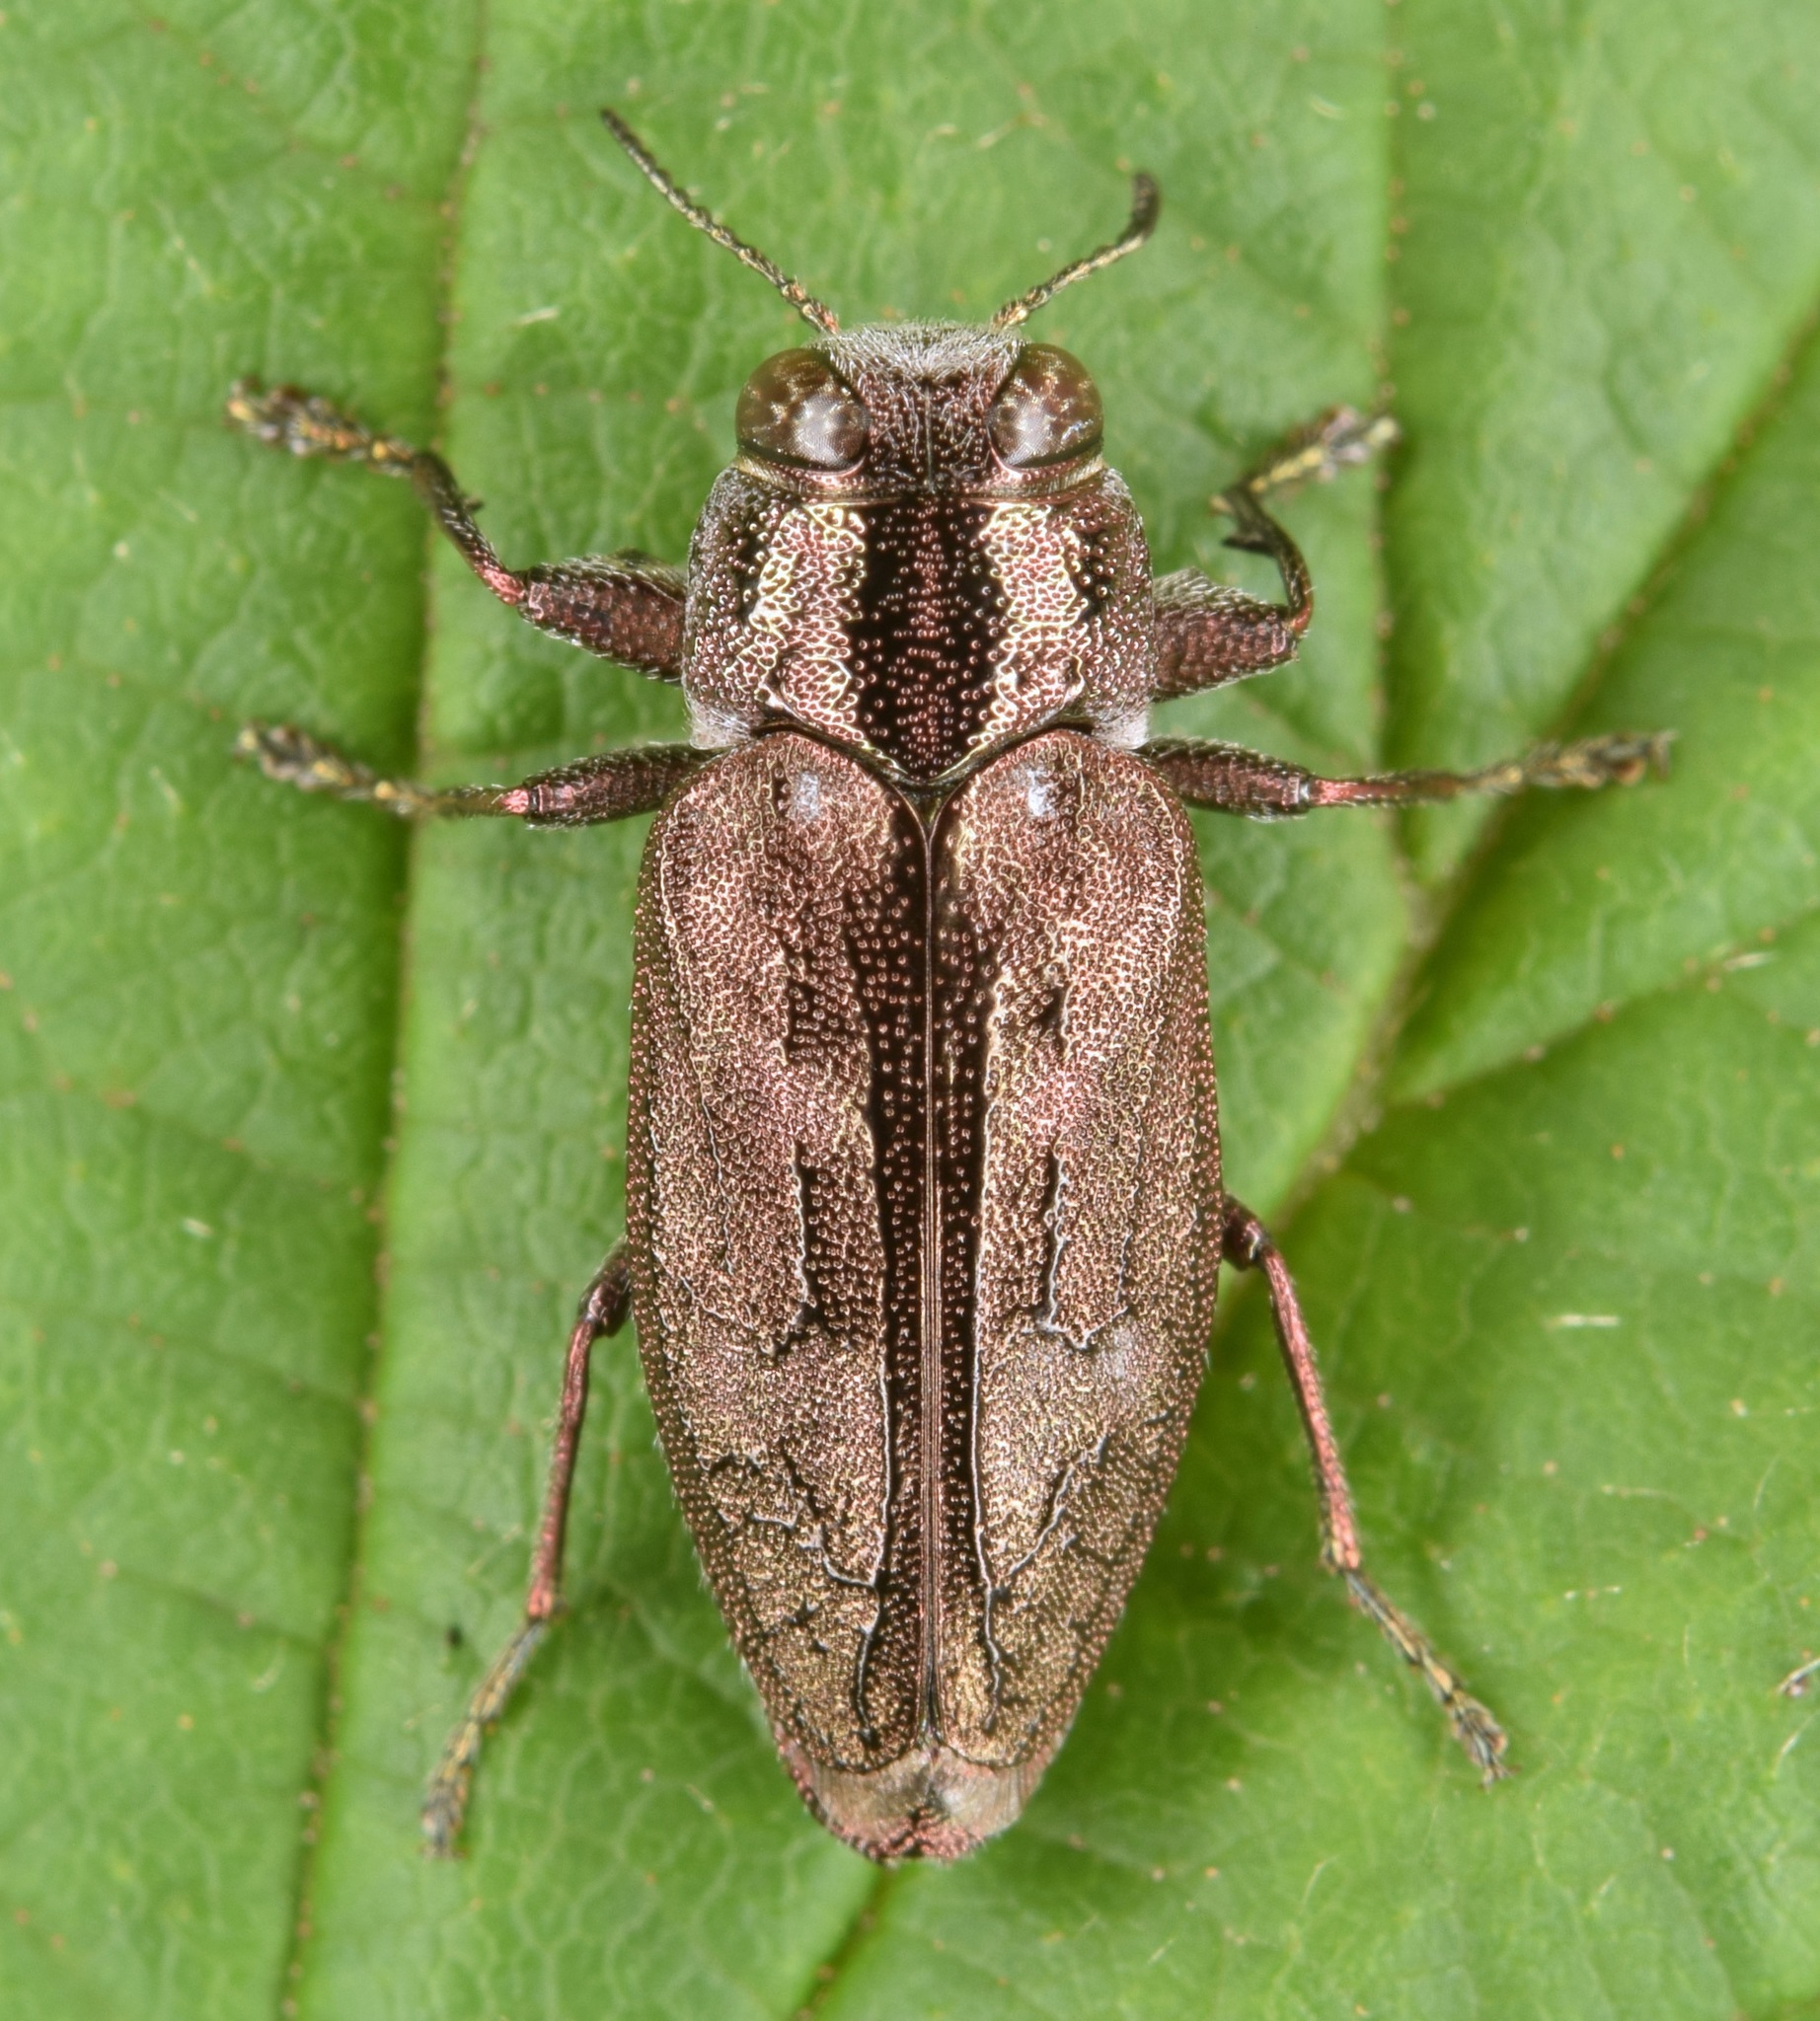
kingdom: Animalia
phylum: Arthropoda
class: Insecta
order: Coleoptera
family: Buprestidae
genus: Chrysobothris
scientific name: Chrysobothris cribraria
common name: Sifting metallic wood-borer
